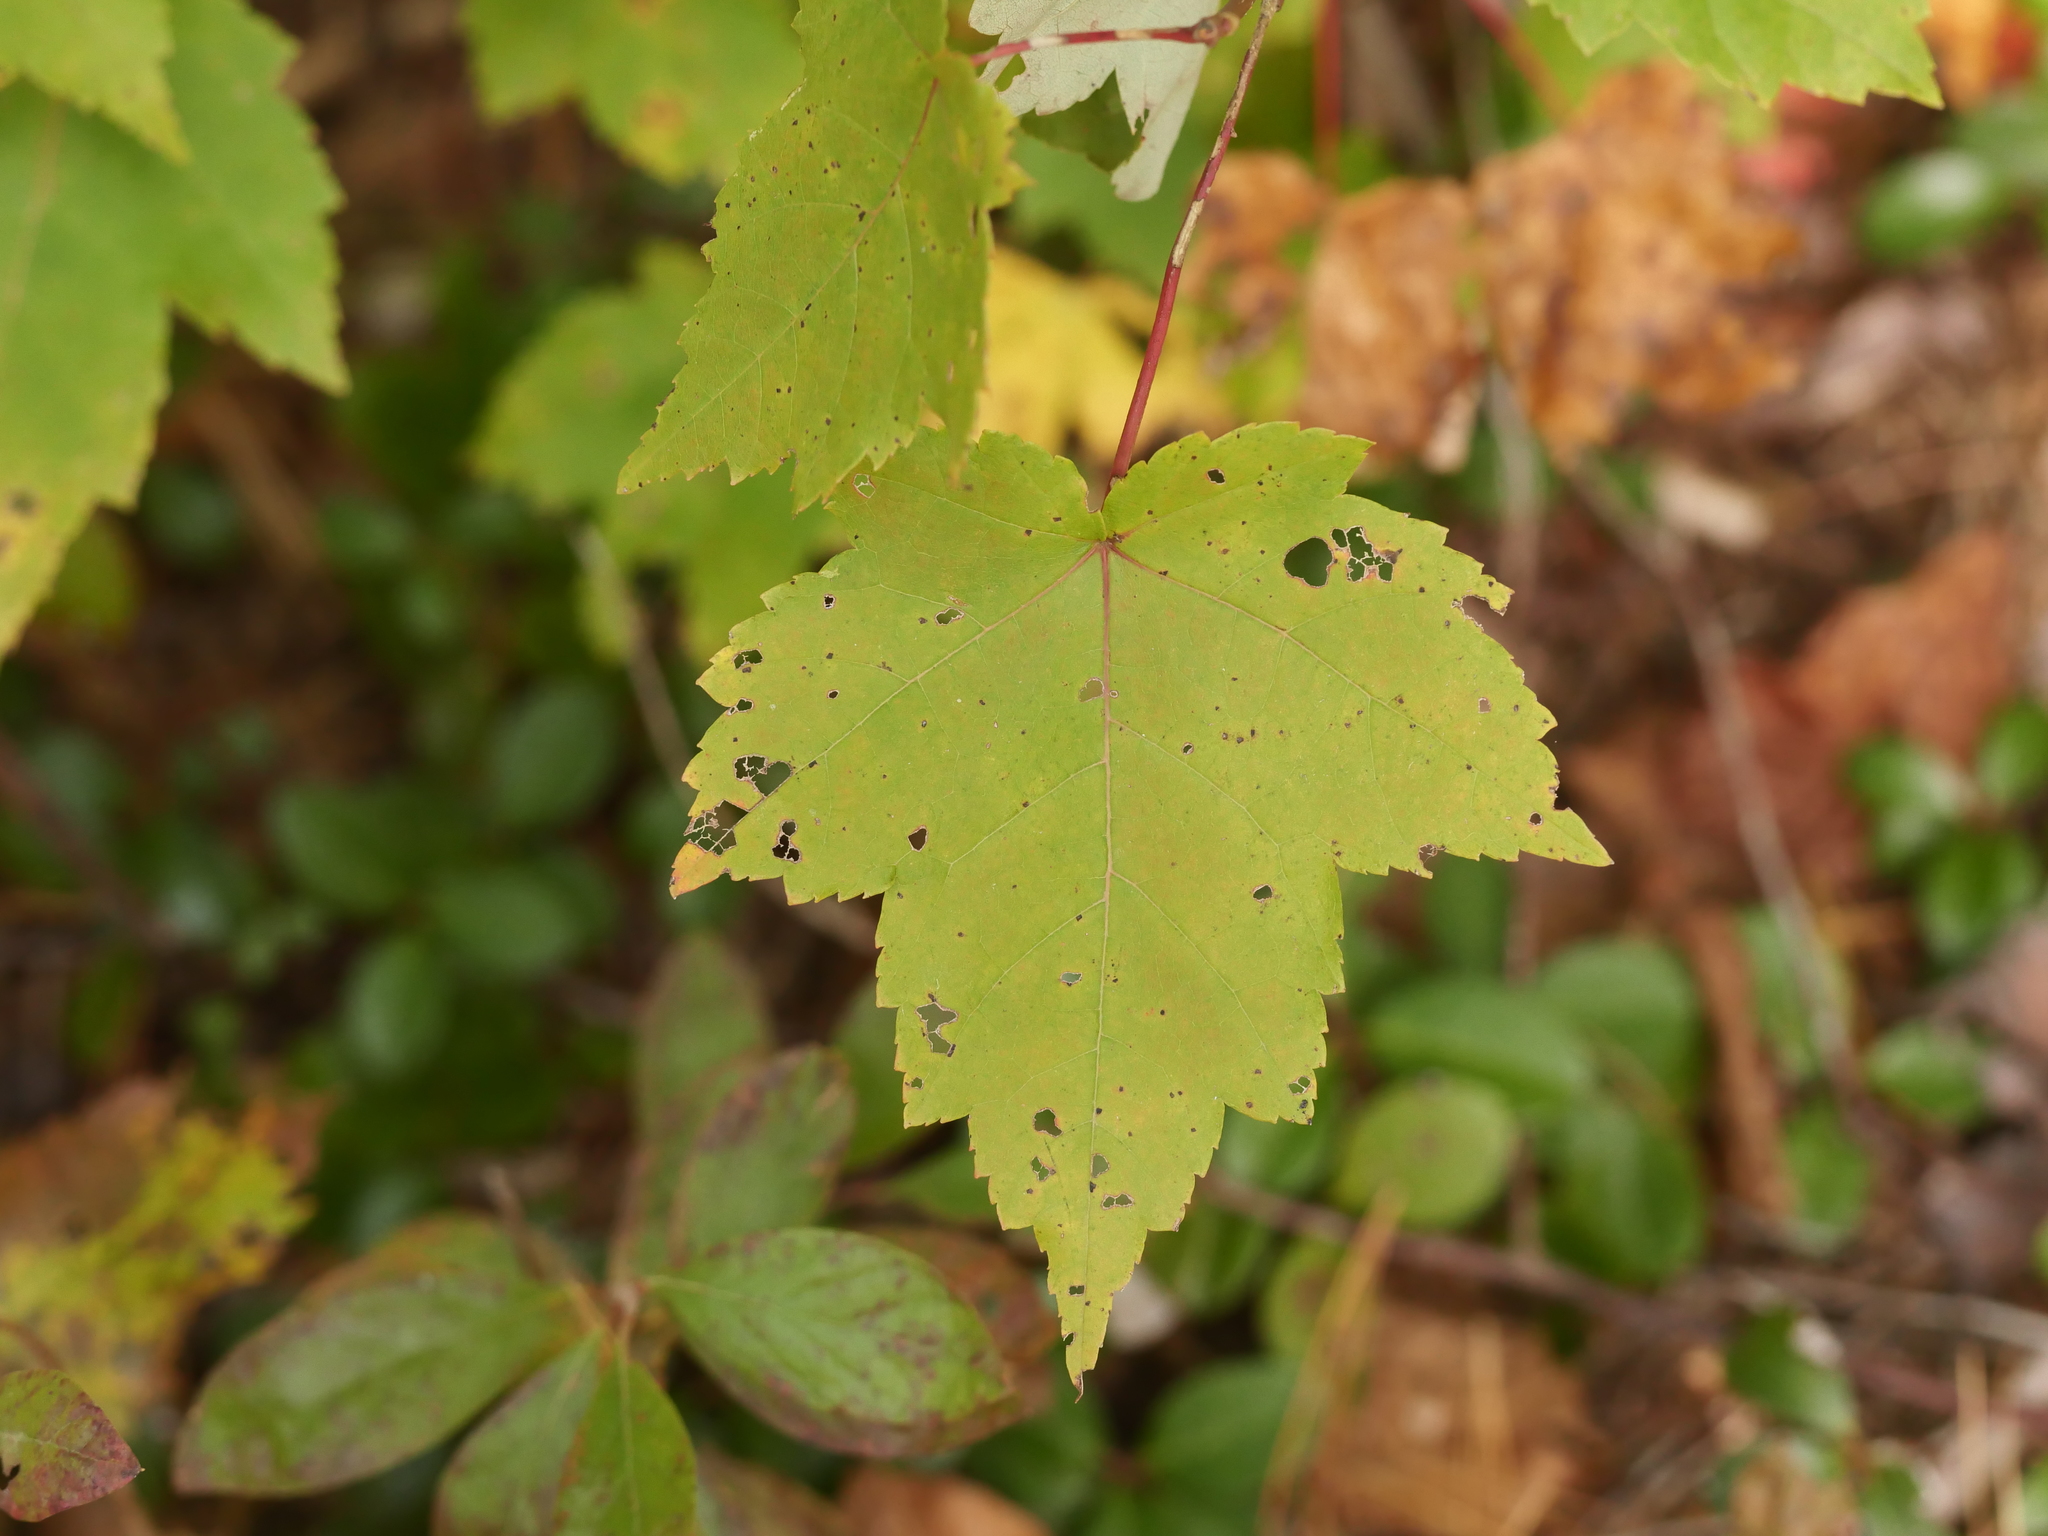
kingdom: Plantae
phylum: Tracheophyta
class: Magnoliopsida
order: Sapindales
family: Sapindaceae
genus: Acer
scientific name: Acer rubrum
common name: Red maple
